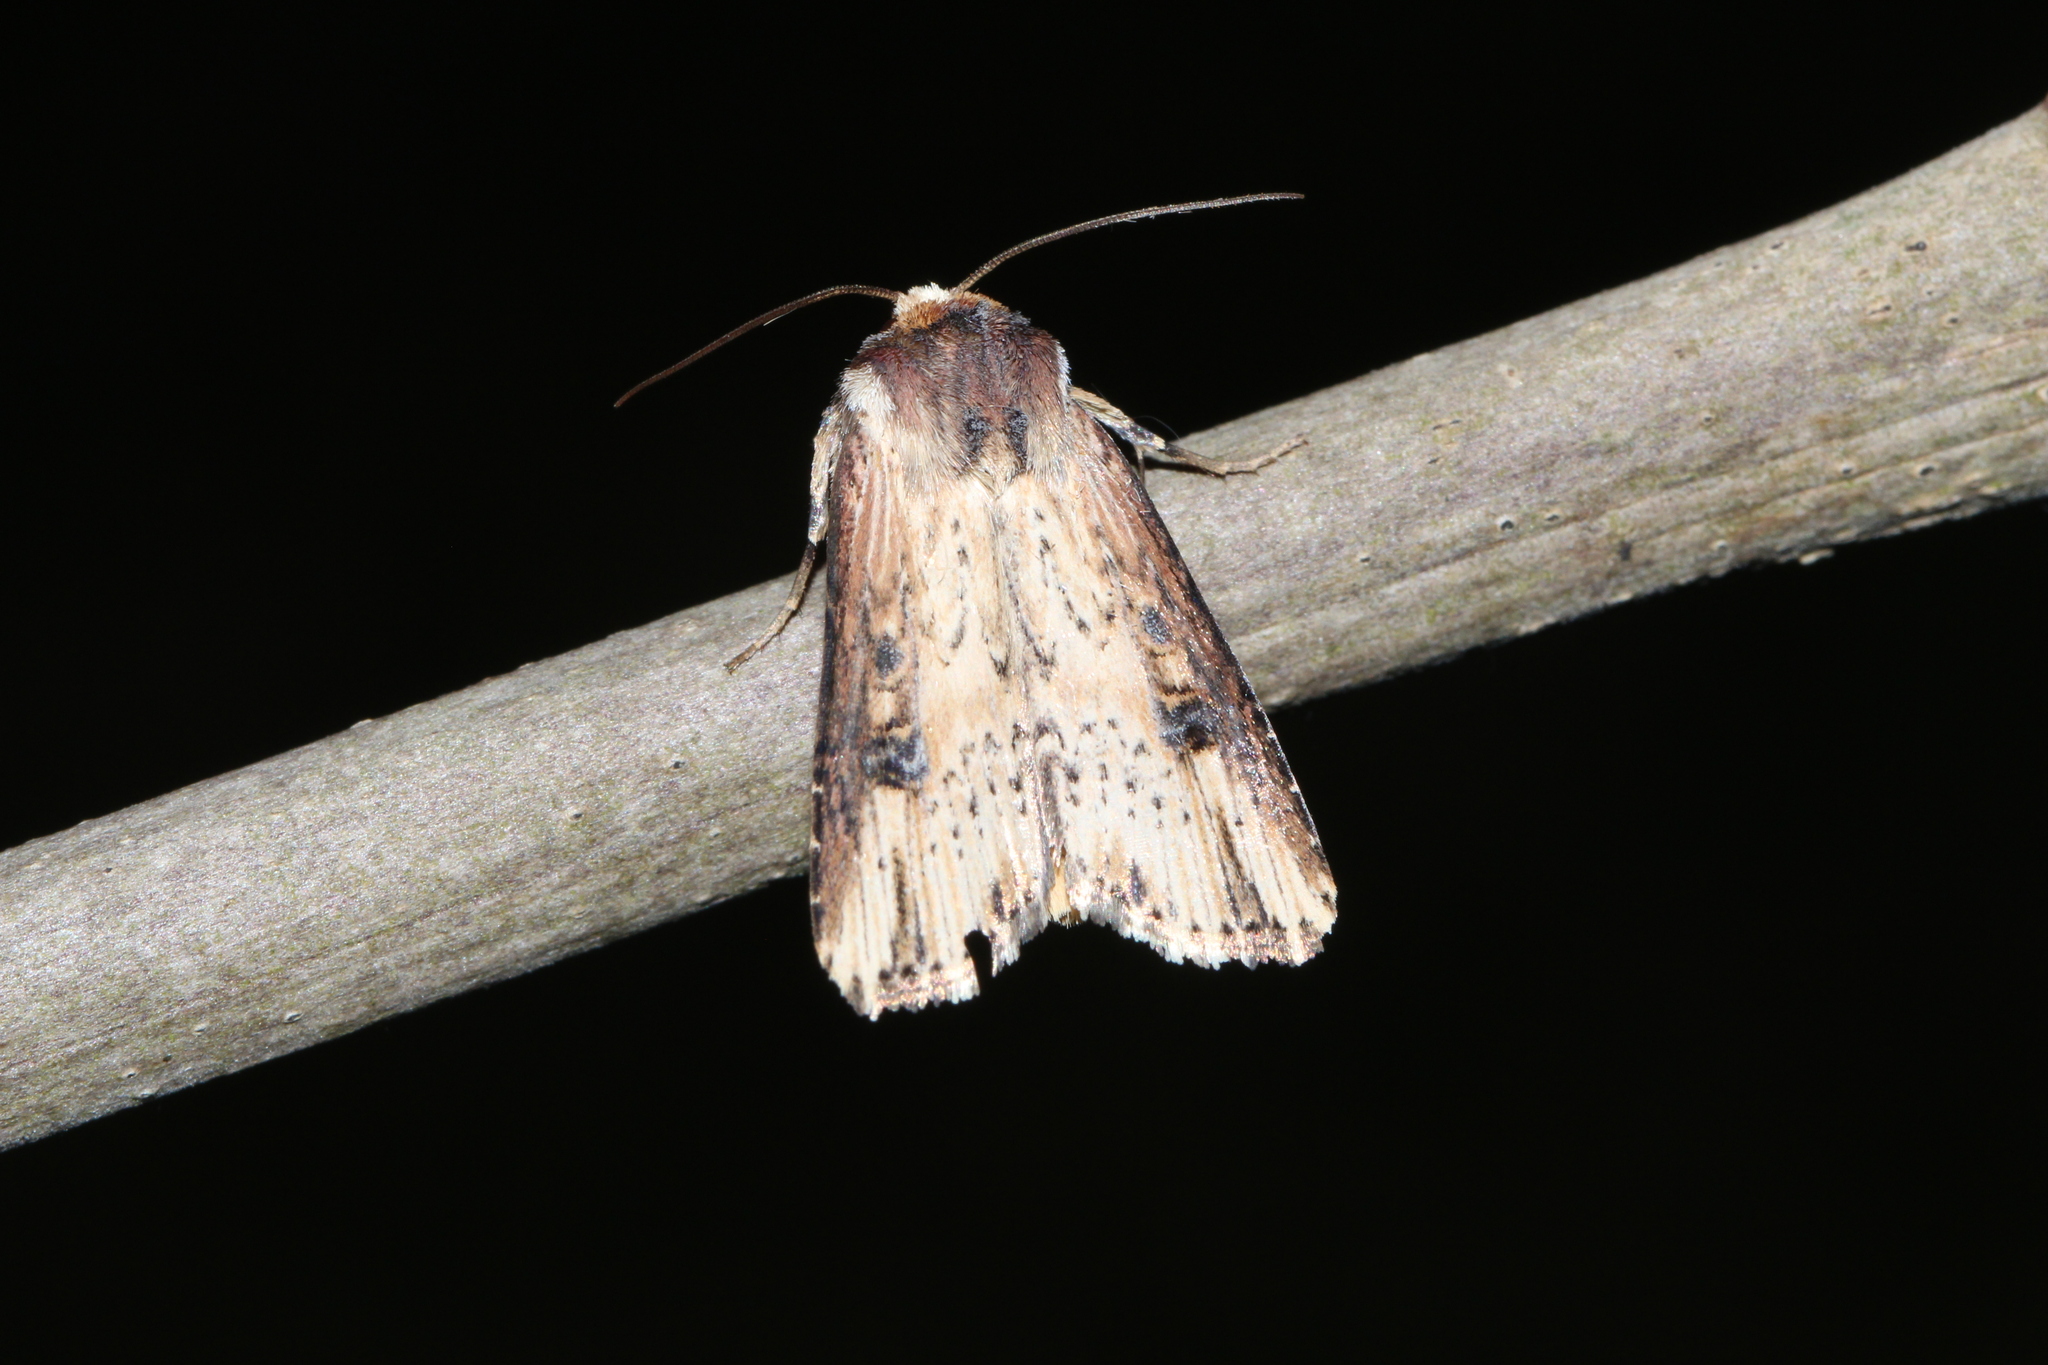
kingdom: Animalia
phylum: Arthropoda
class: Insecta
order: Lepidoptera
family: Noctuidae
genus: Axylia
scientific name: Axylia putris
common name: Flame
